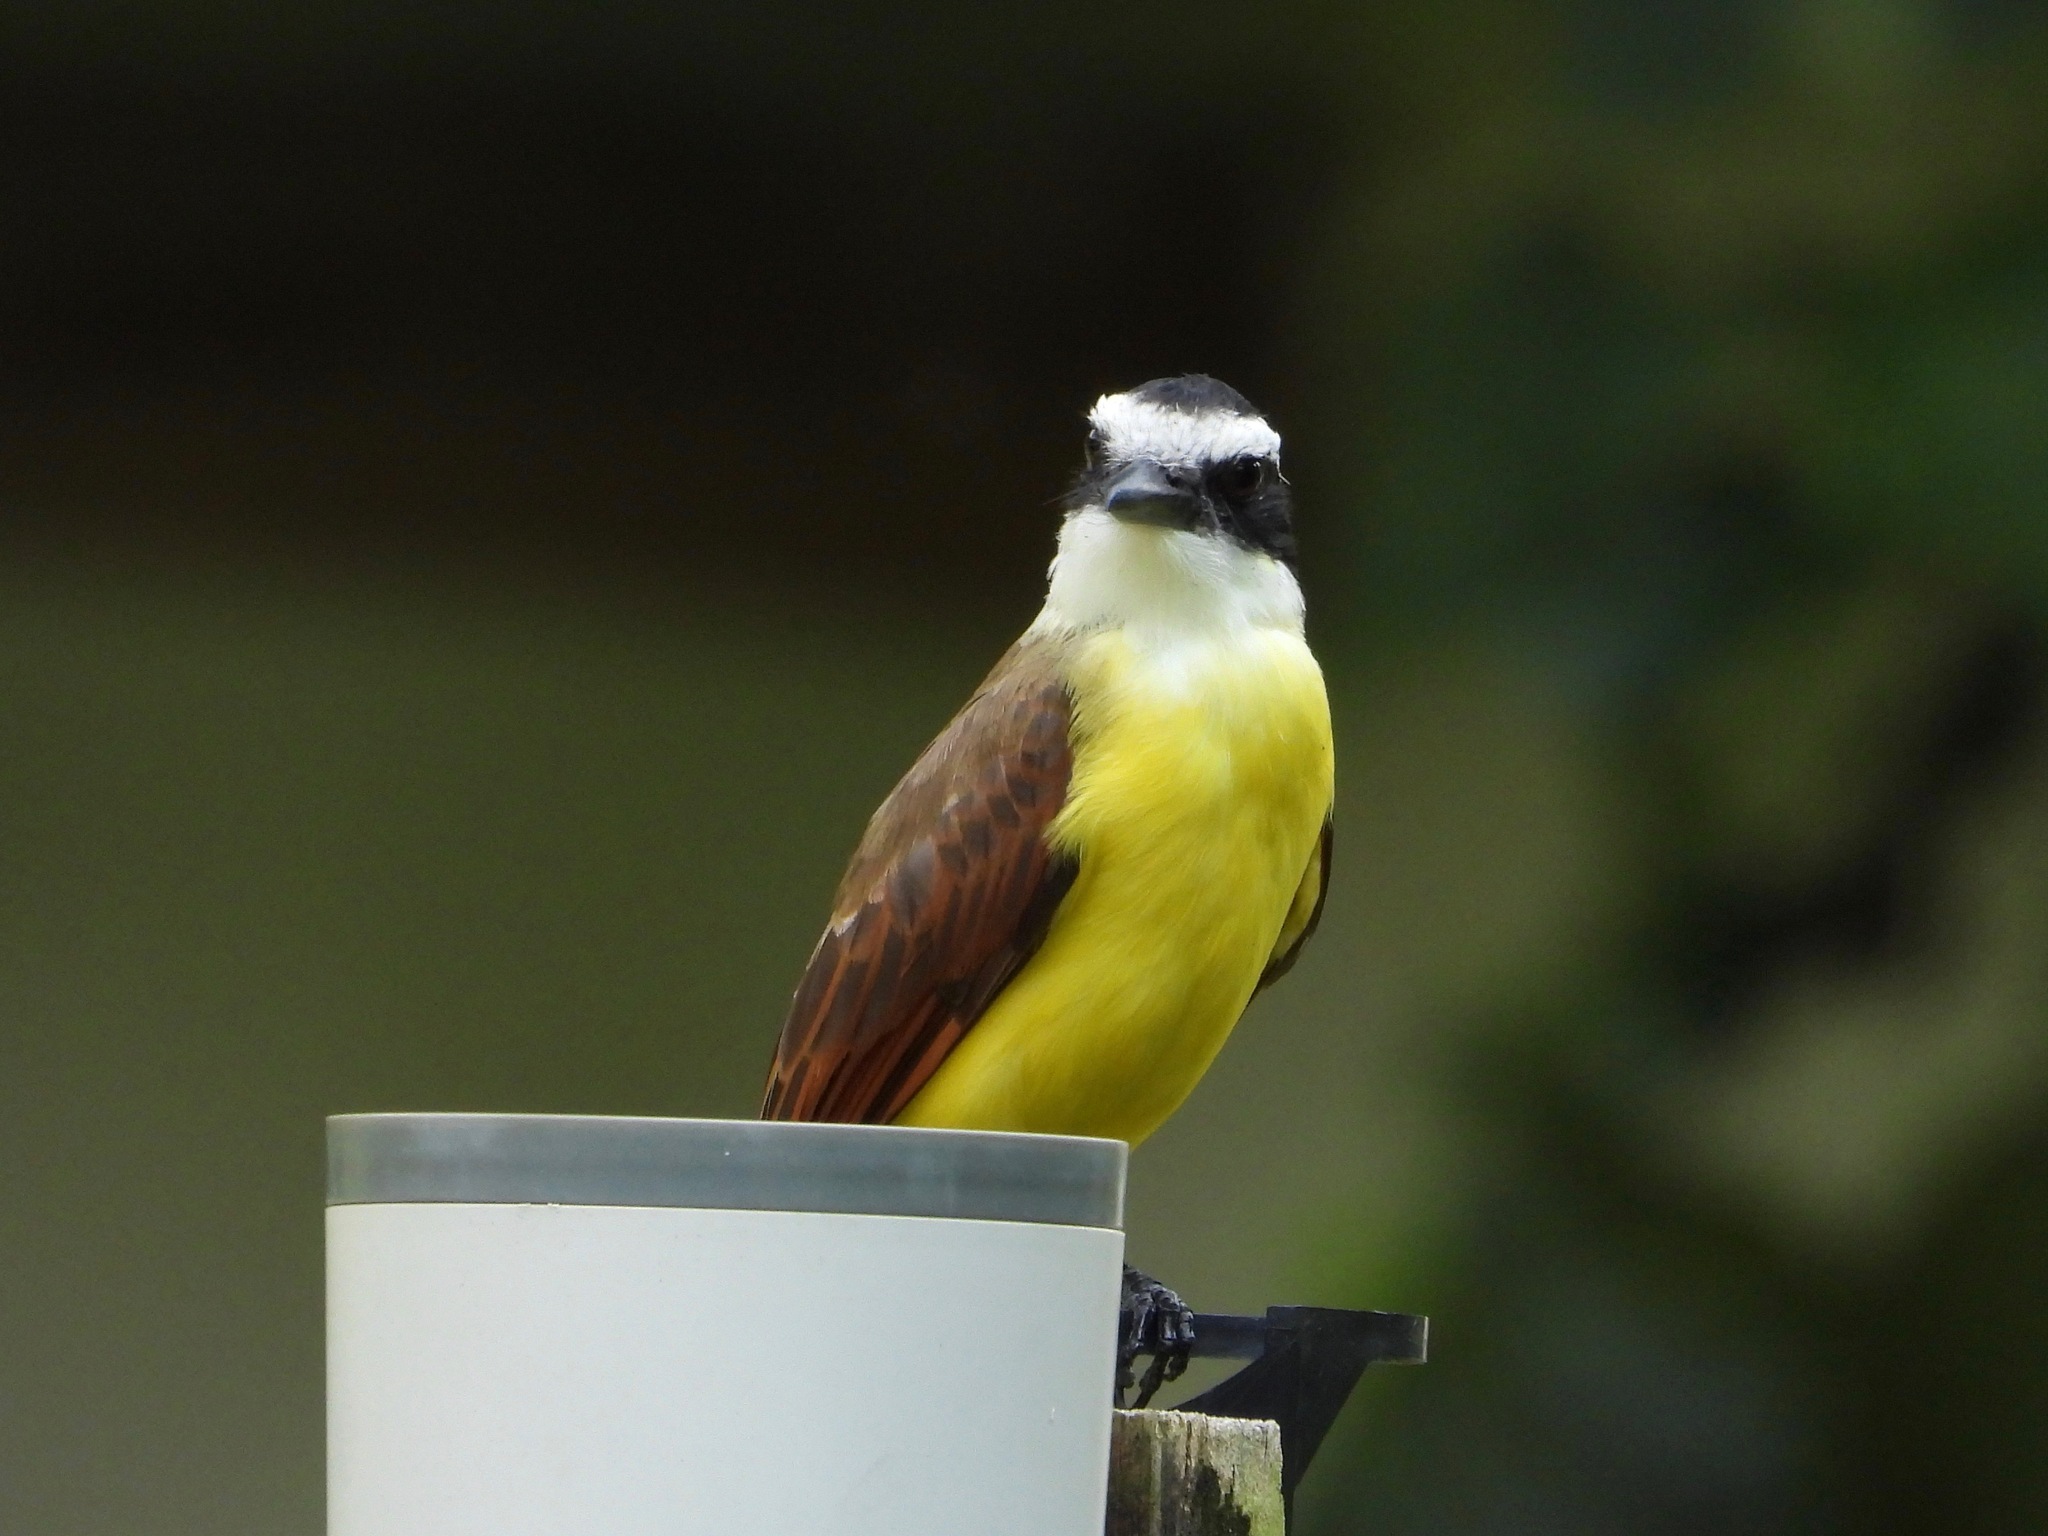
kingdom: Animalia
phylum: Chordata
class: Aves
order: Passeriformes
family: Tyrannidae
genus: Pitangus
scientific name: Pitangus sulphuratus
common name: Great kiskadee
